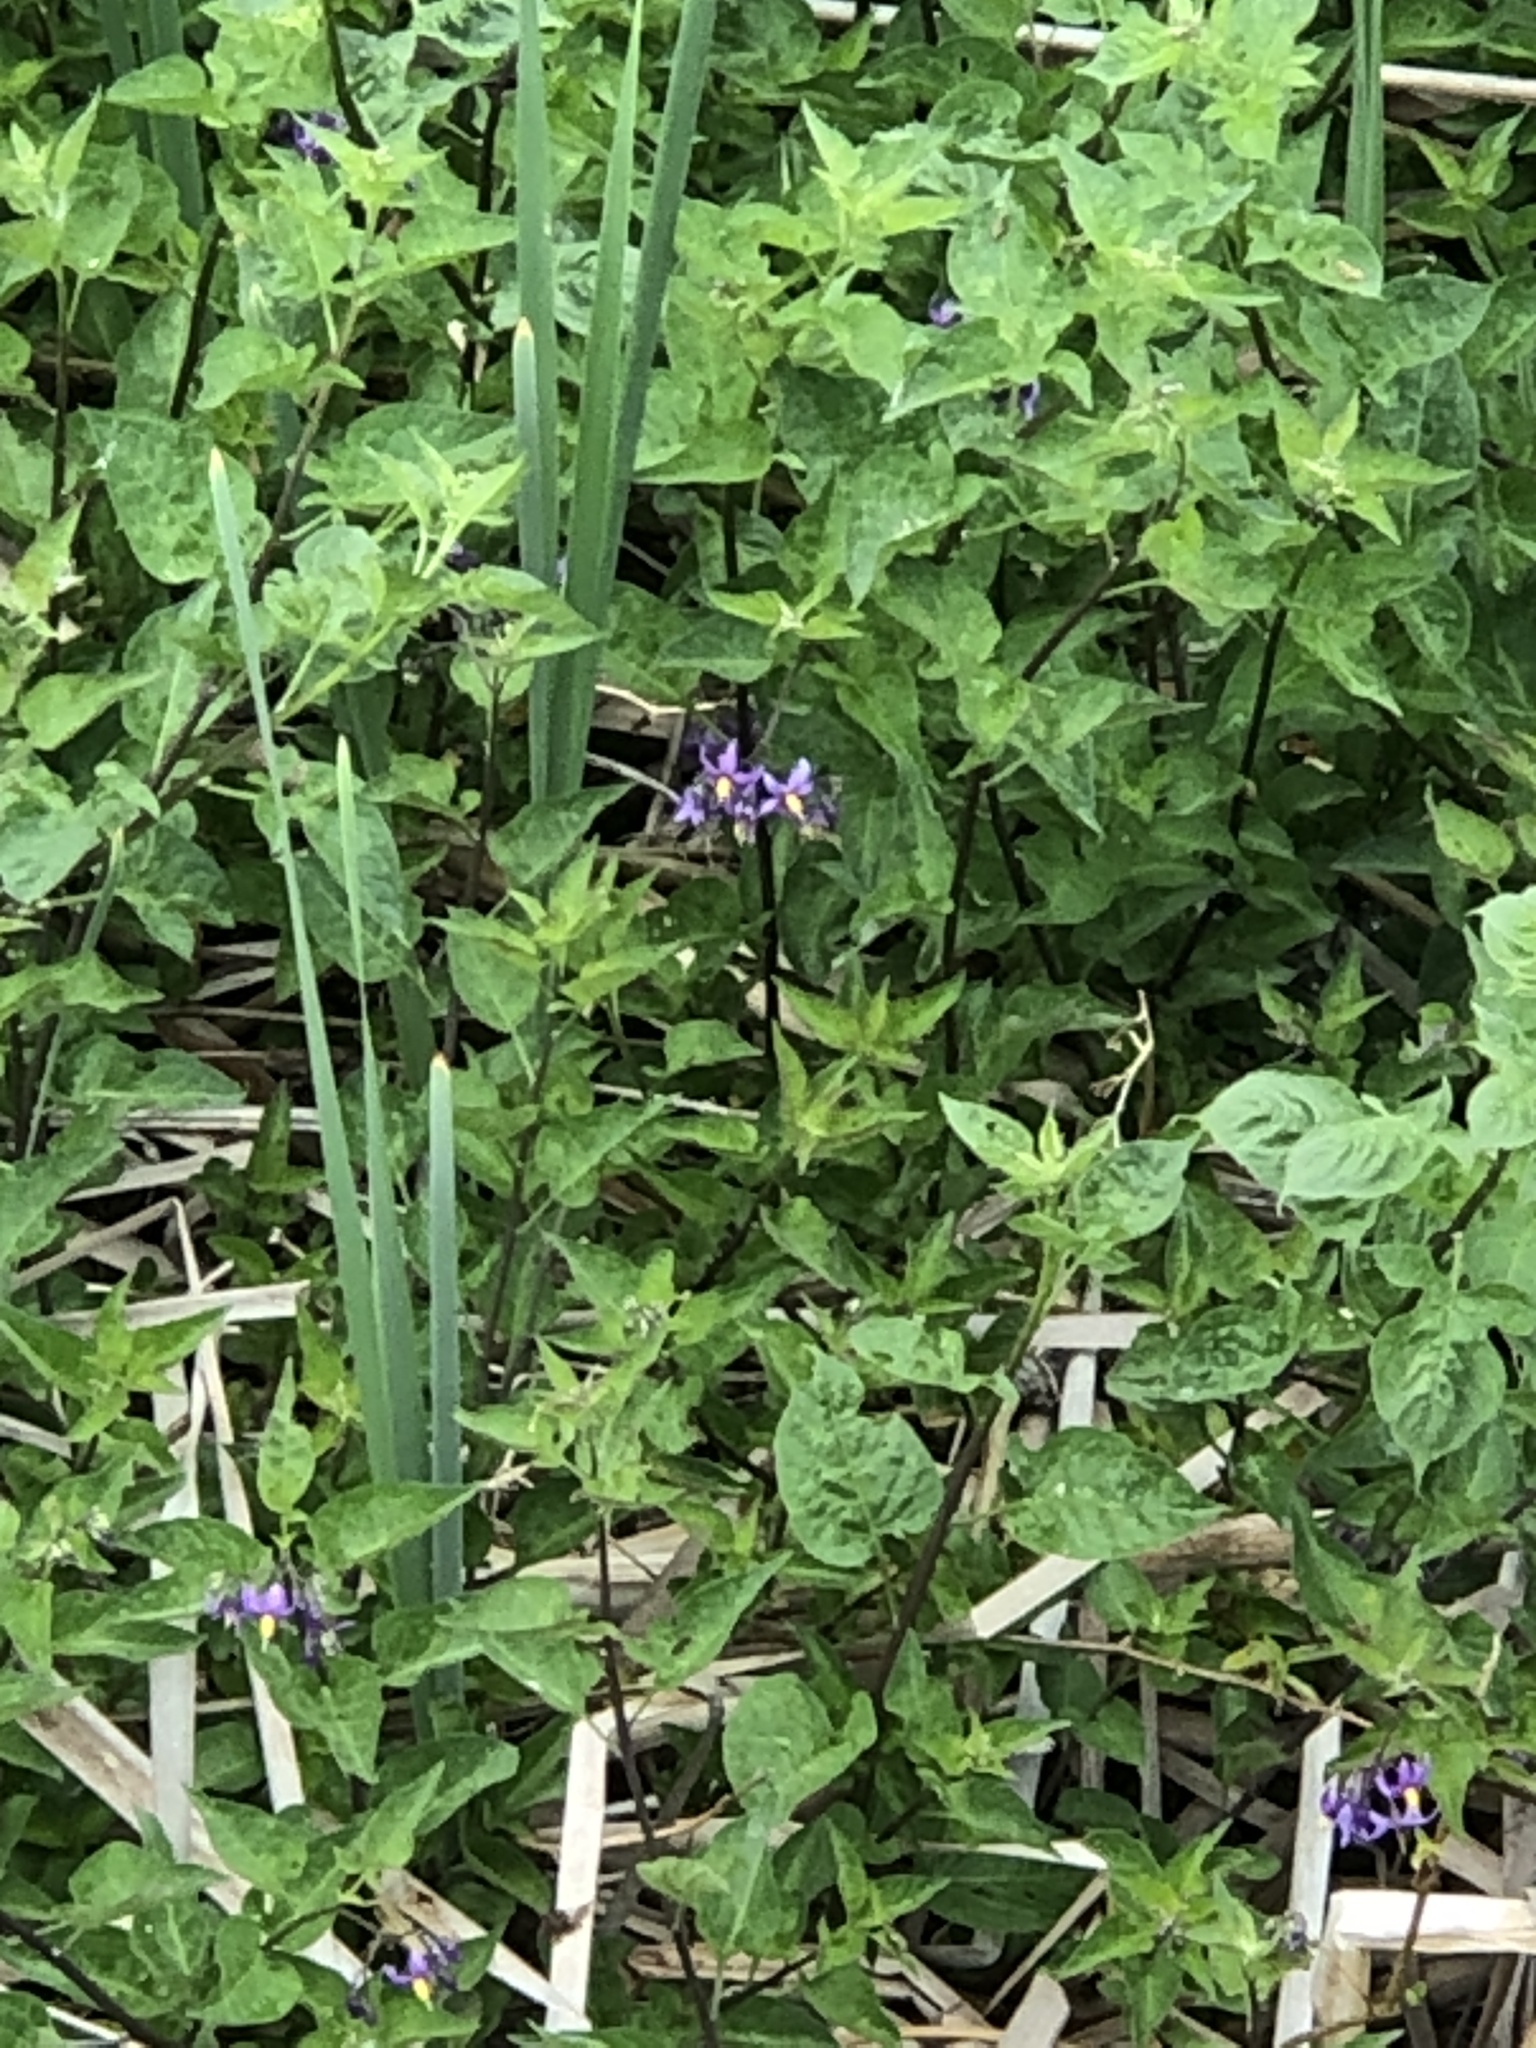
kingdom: Plantae
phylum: Tracheophyta
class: Magnoliopsida
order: Solanales
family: Solanaceae
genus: Solanum
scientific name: Solanum dulcamara
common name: Climbing nightshade
